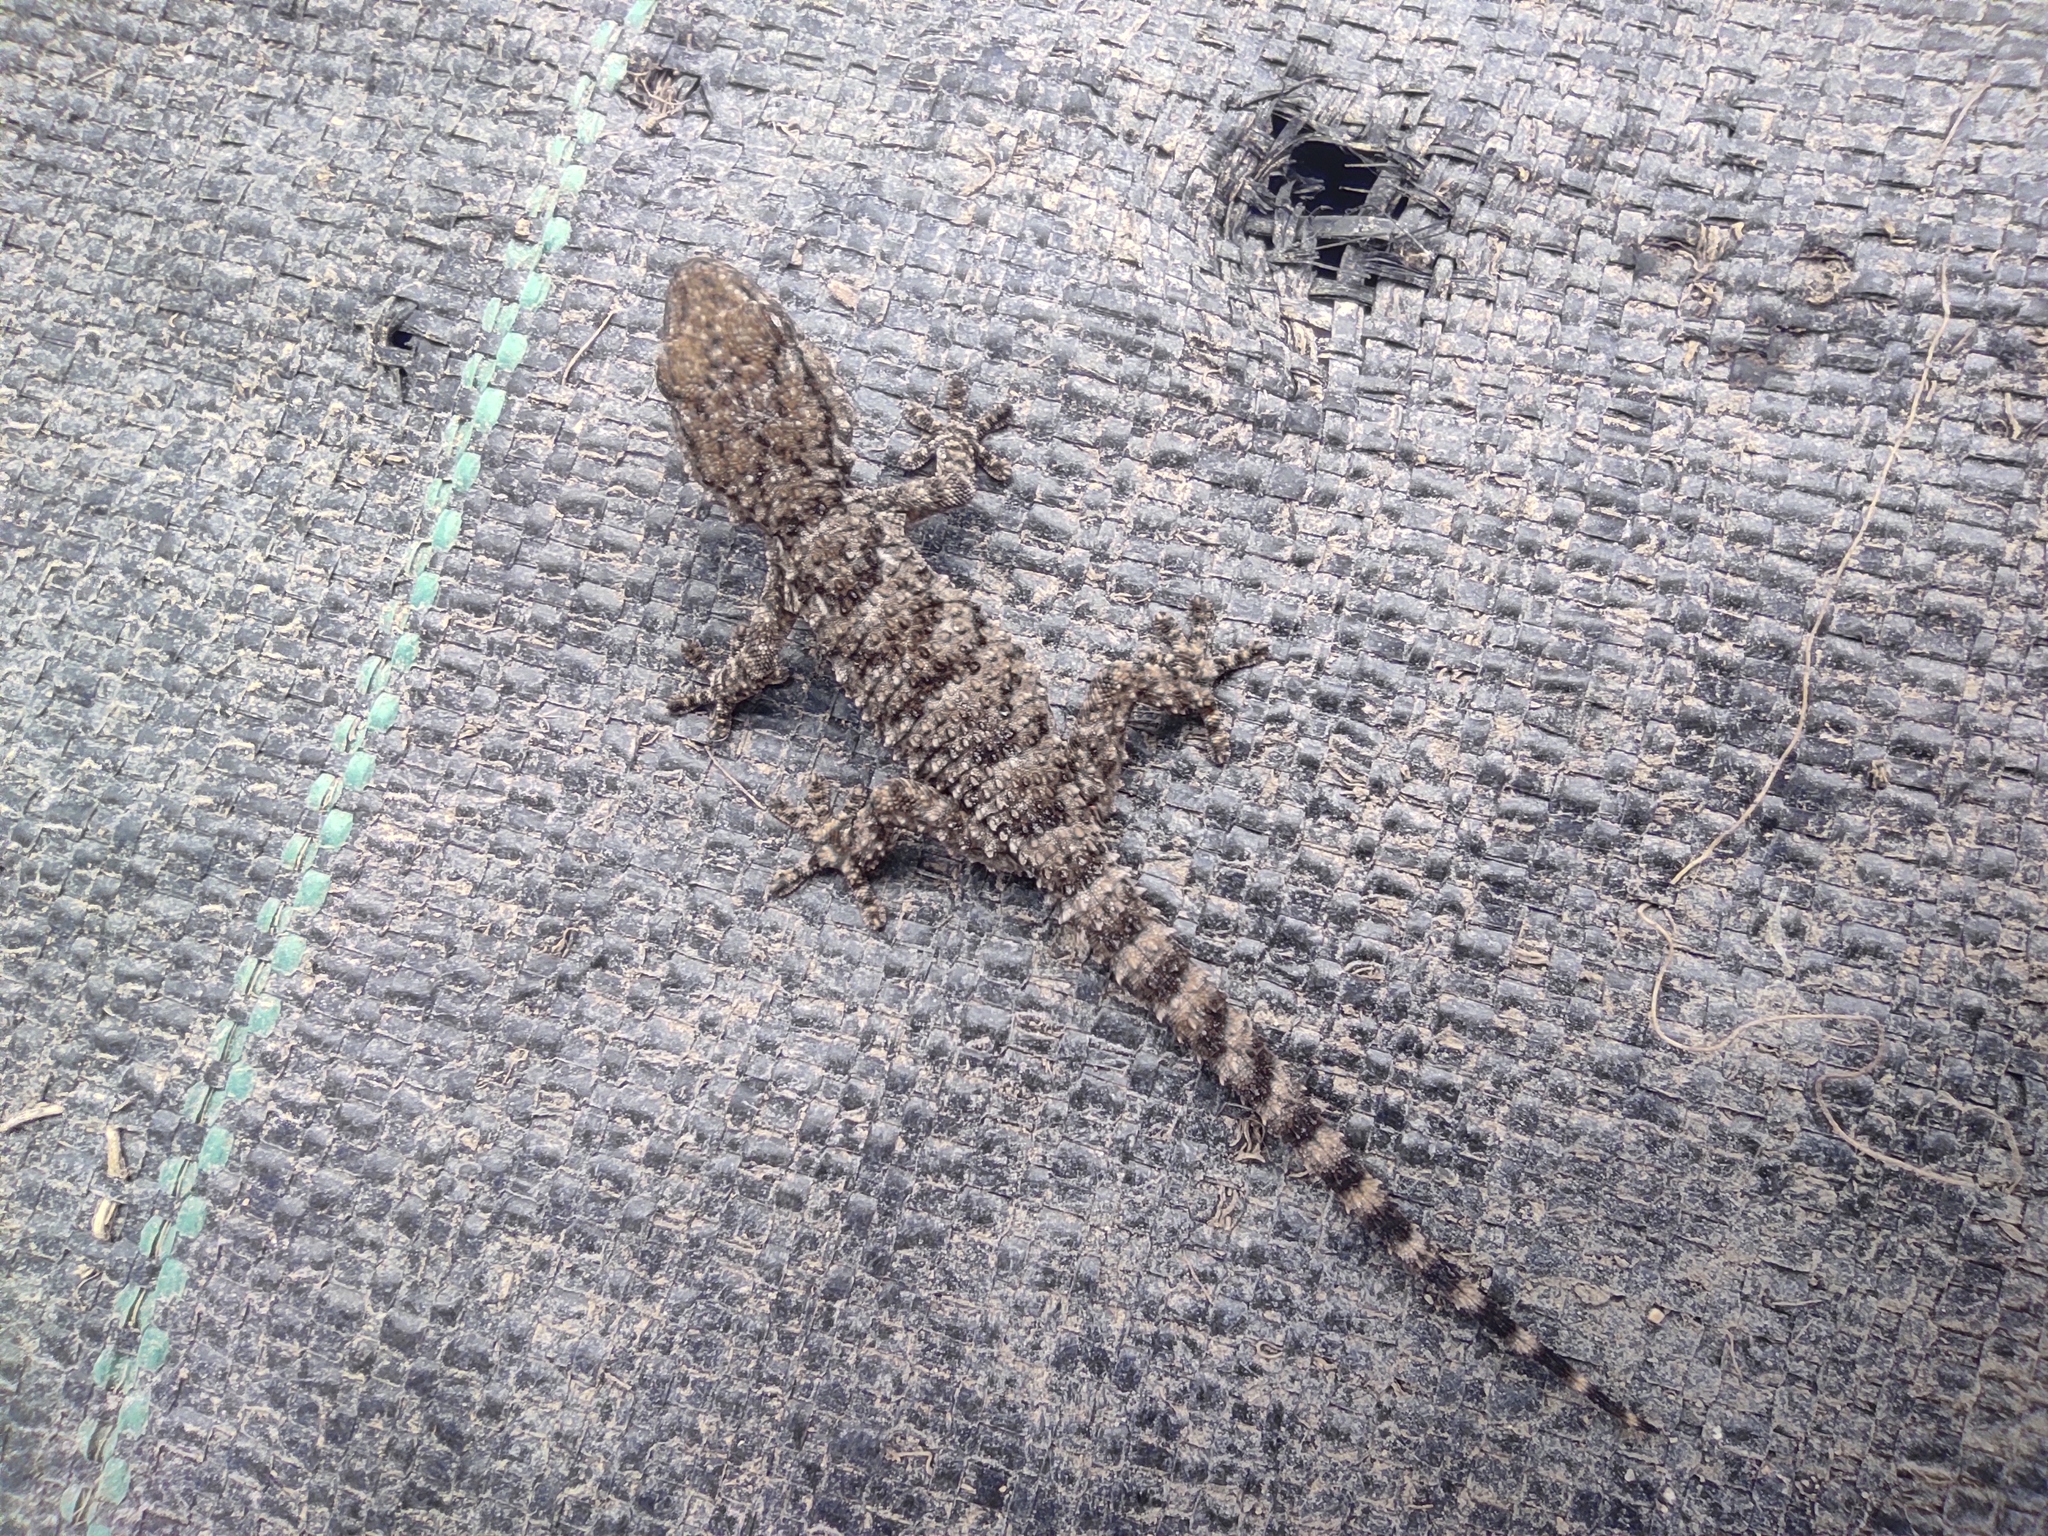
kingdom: Animalia
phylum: Chordata
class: Squamata
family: Phyllodactylidae
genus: Tarentola
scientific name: Tarentola mauritanica
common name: Moorish gecko
